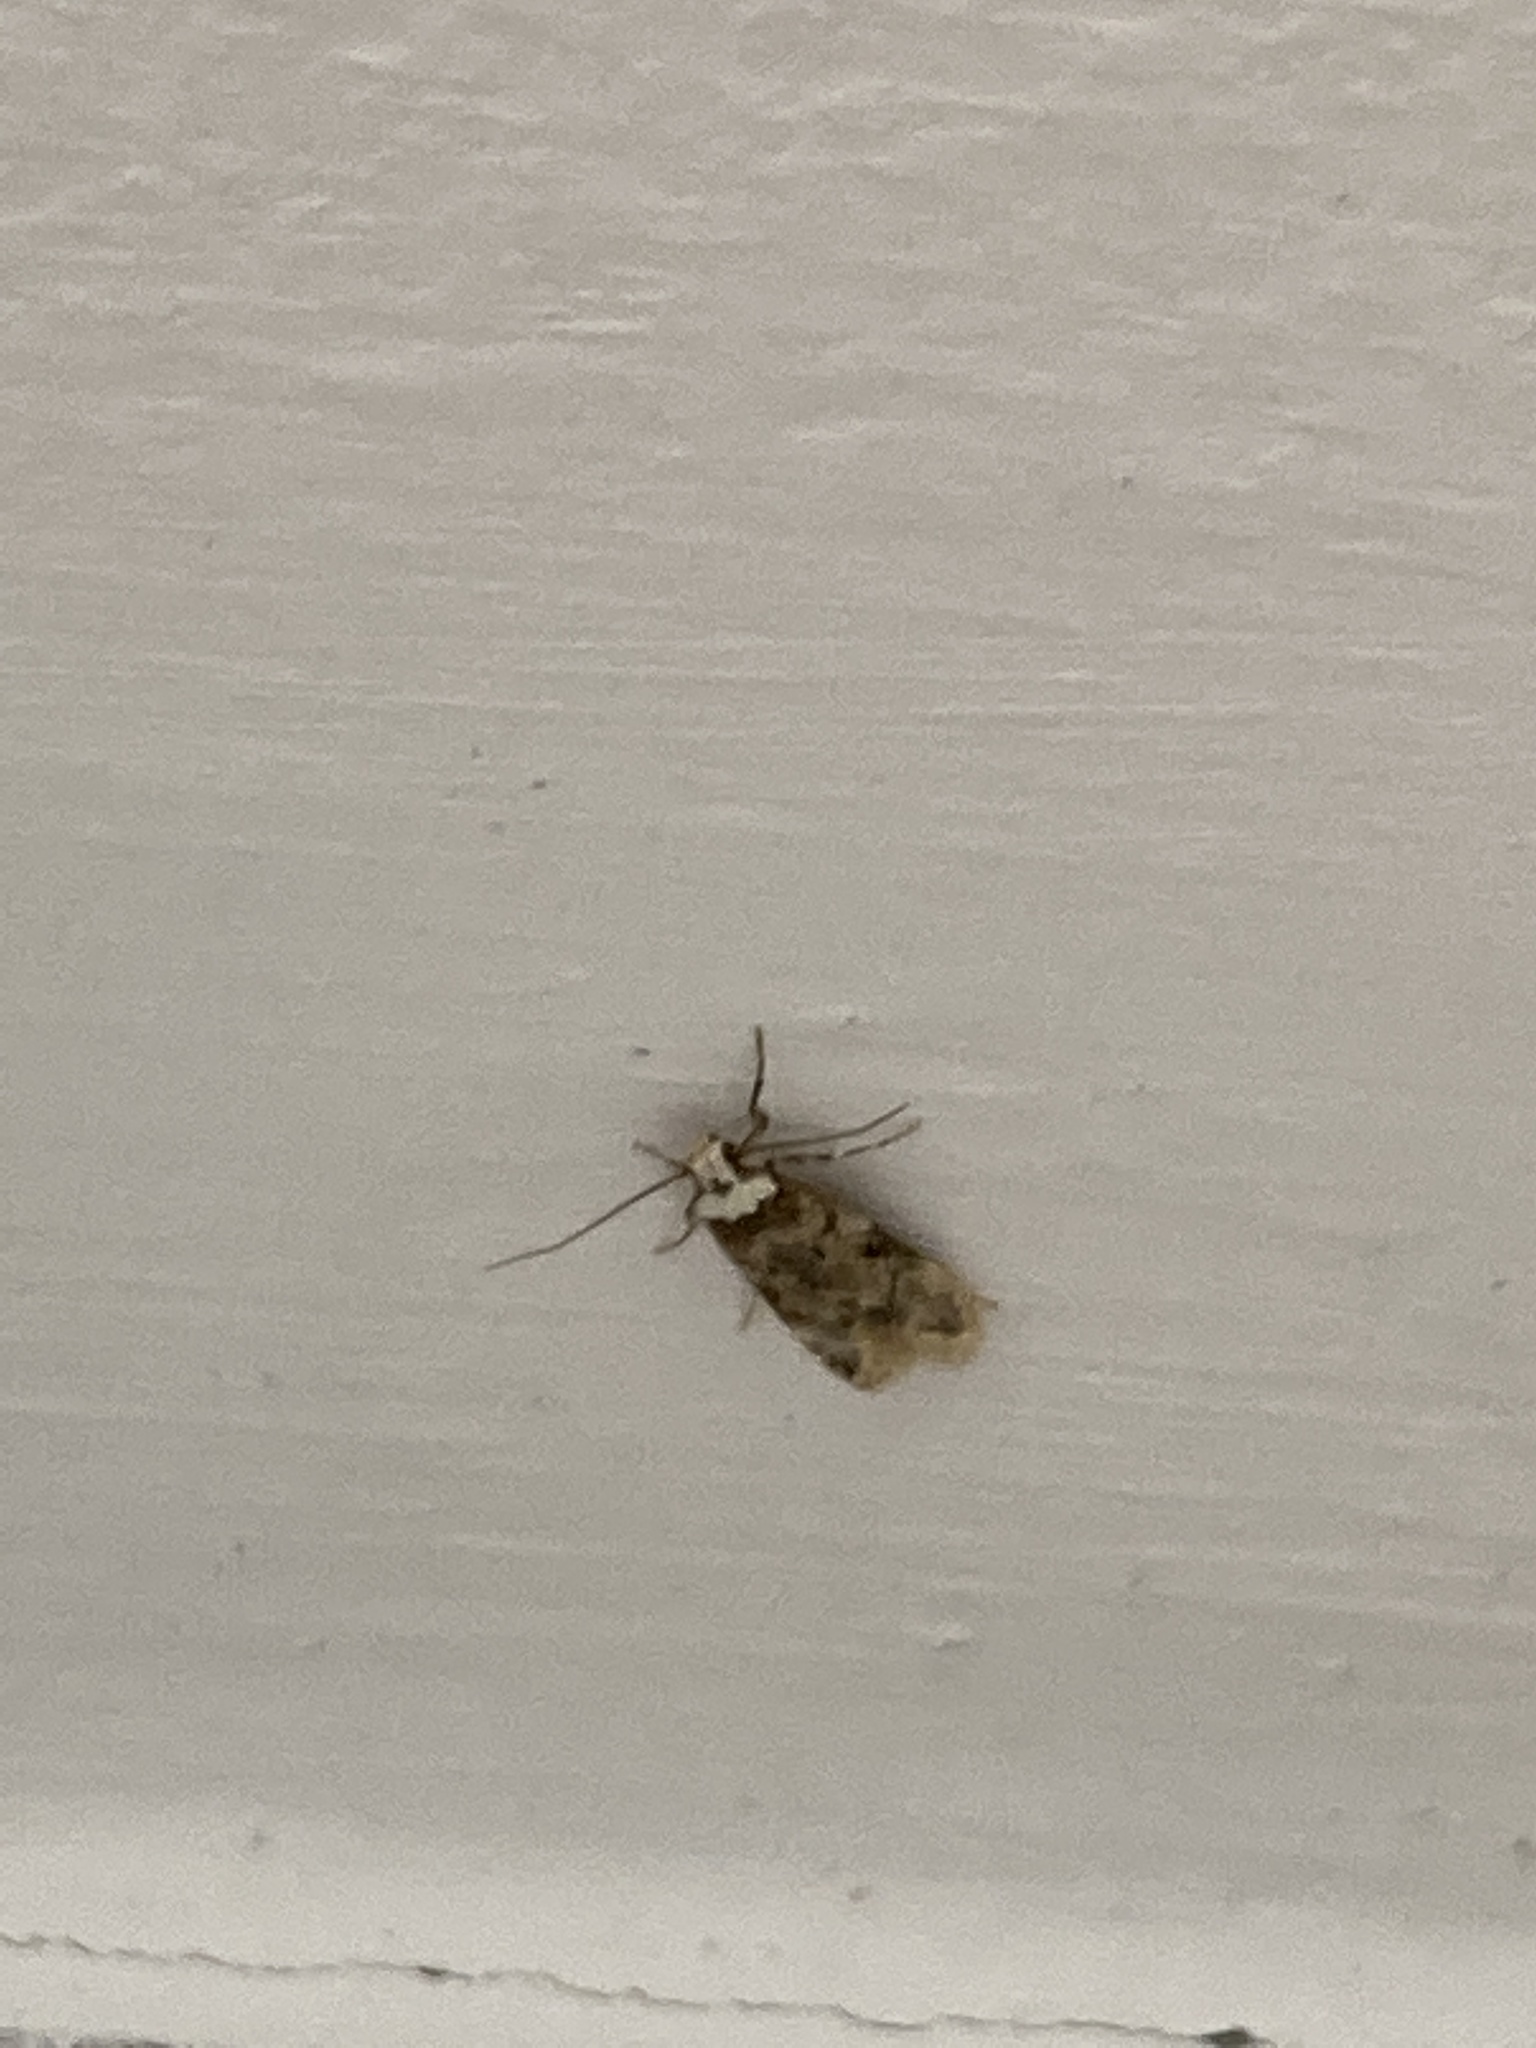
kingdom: Animalia
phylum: Arthropoda
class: Insecta
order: Lepidoptera
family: Oecophoridae
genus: Endrosis
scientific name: Endrosis sarcitrella
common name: White-shouldered house moth
